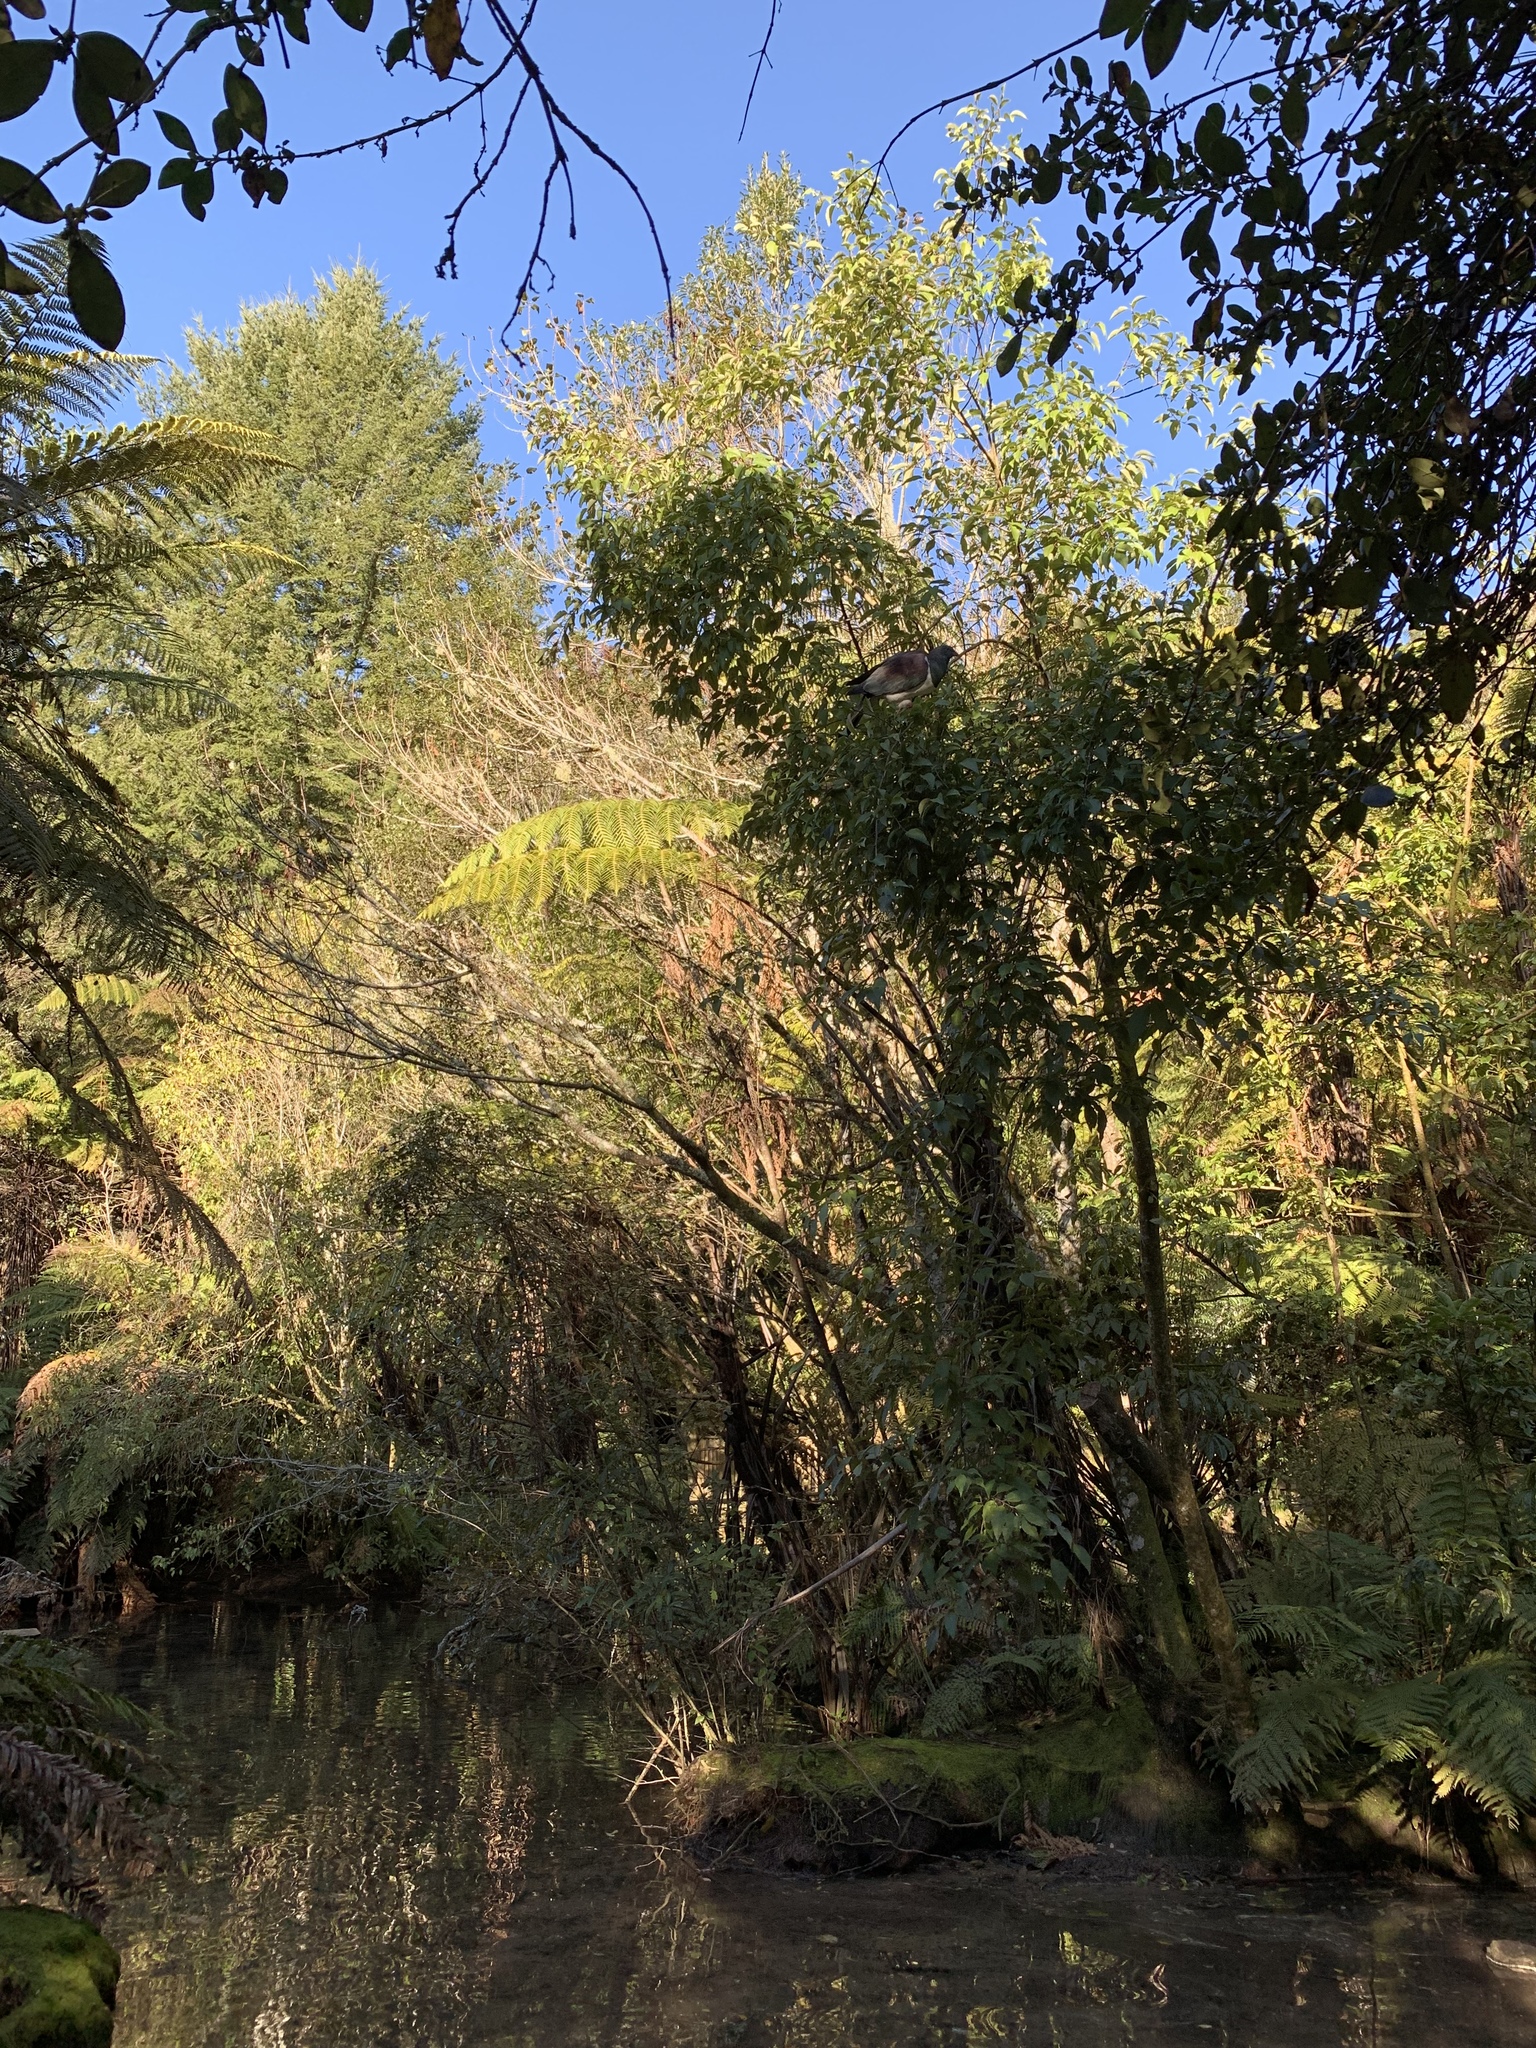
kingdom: Animalia
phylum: Chordata
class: Aves
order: Columbiformes
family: Columbidae
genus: Hemiphaga
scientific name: Hemiphaga novaeseelandiae
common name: New zealand pigeon
